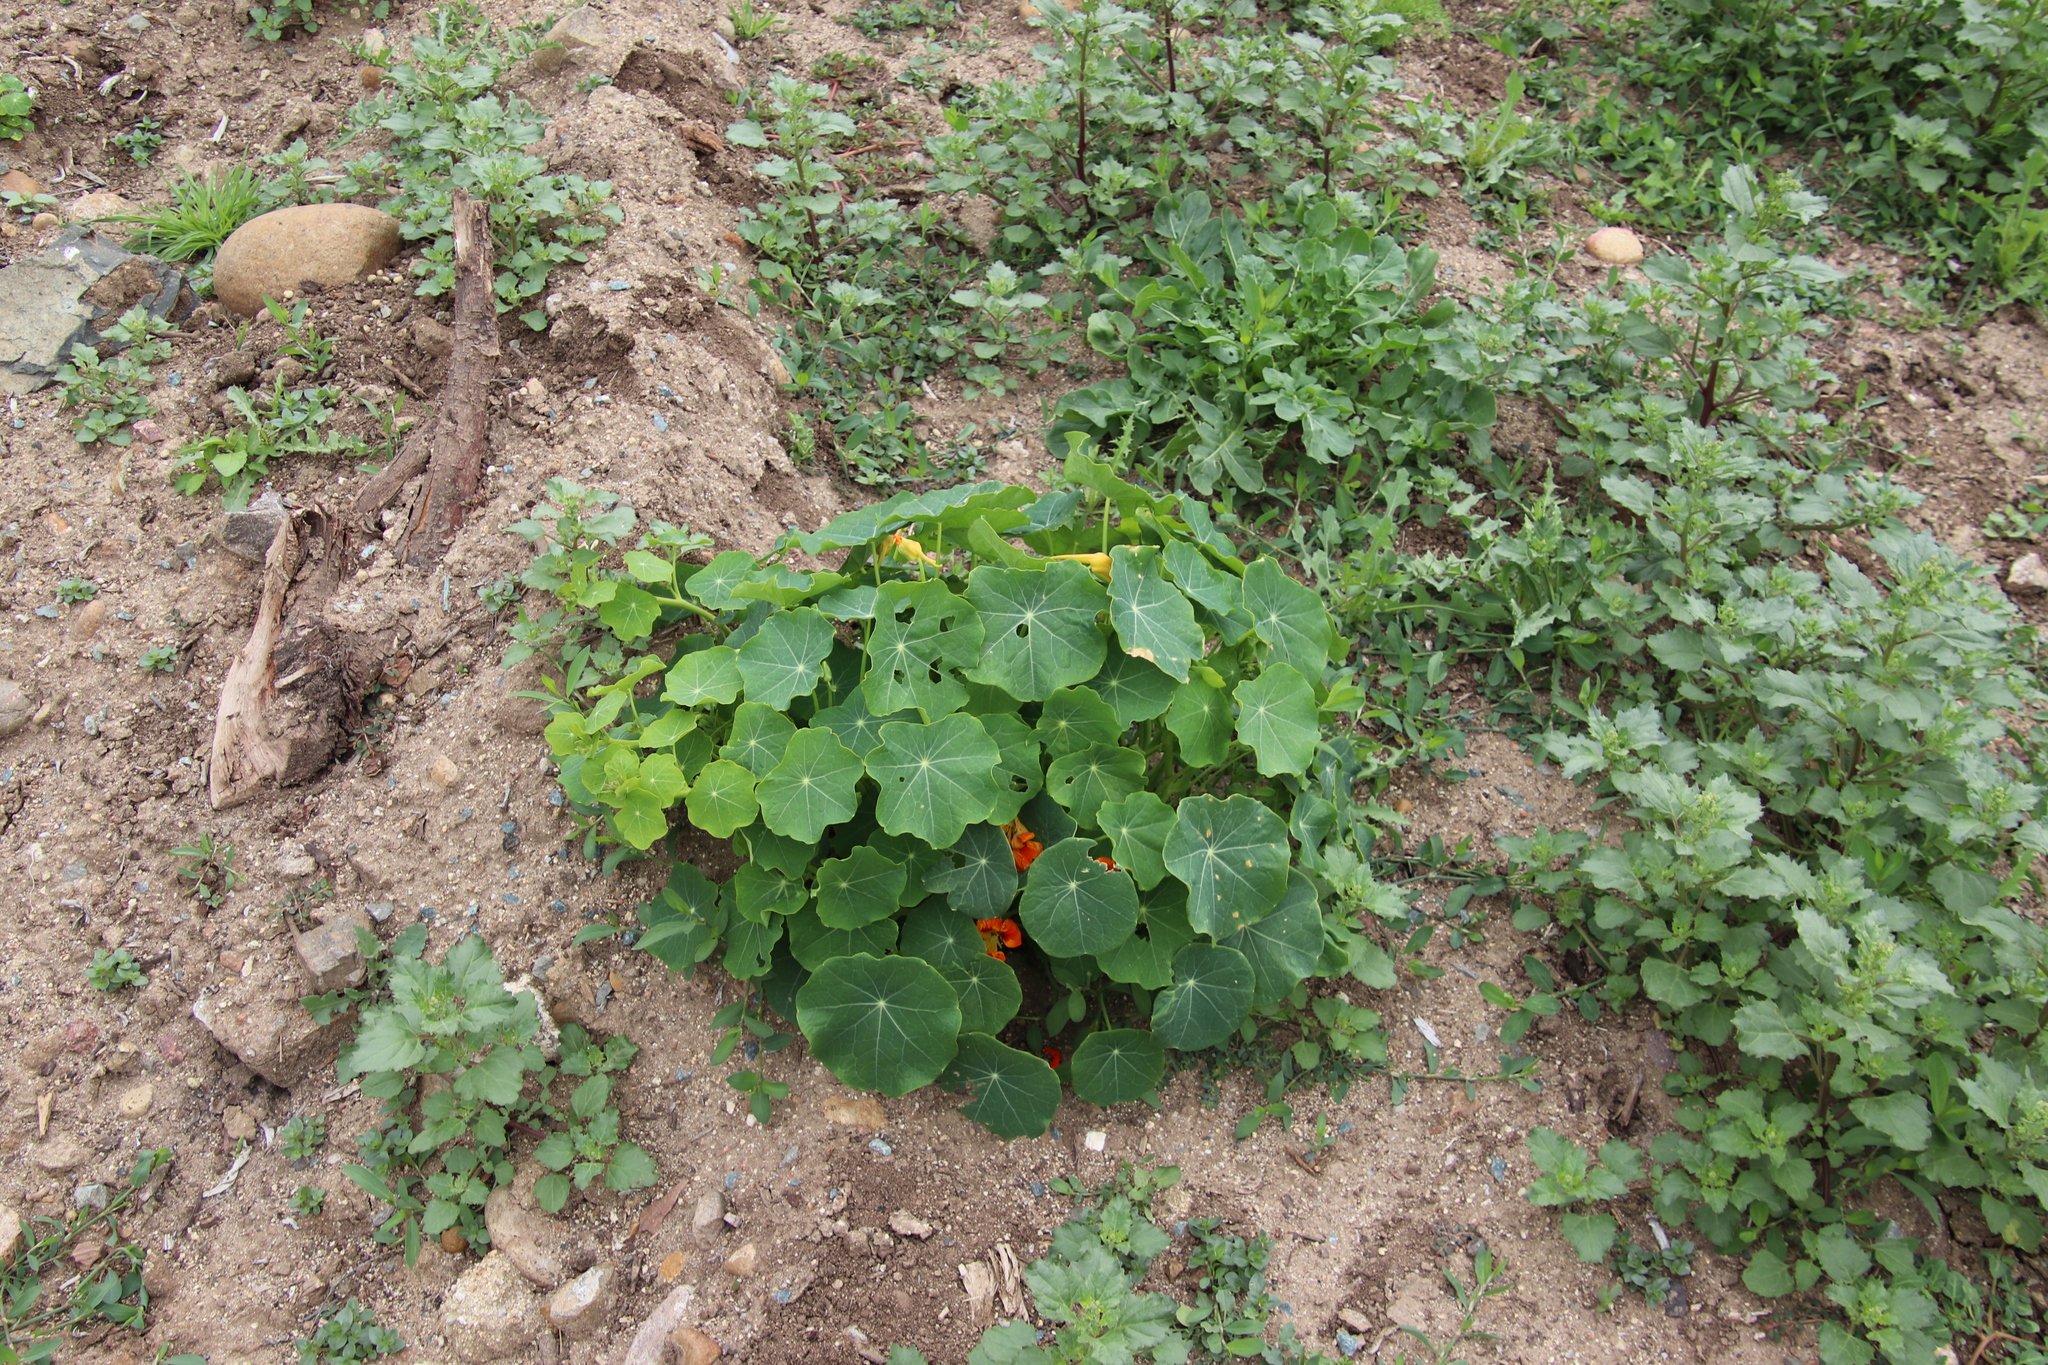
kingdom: Plantae
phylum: Tracheophyta
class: Magnoliopsida
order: Brassicales
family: Tropaeolaceae
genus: Tropaeolum
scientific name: Tropaeolum majus
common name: Nasturtium
